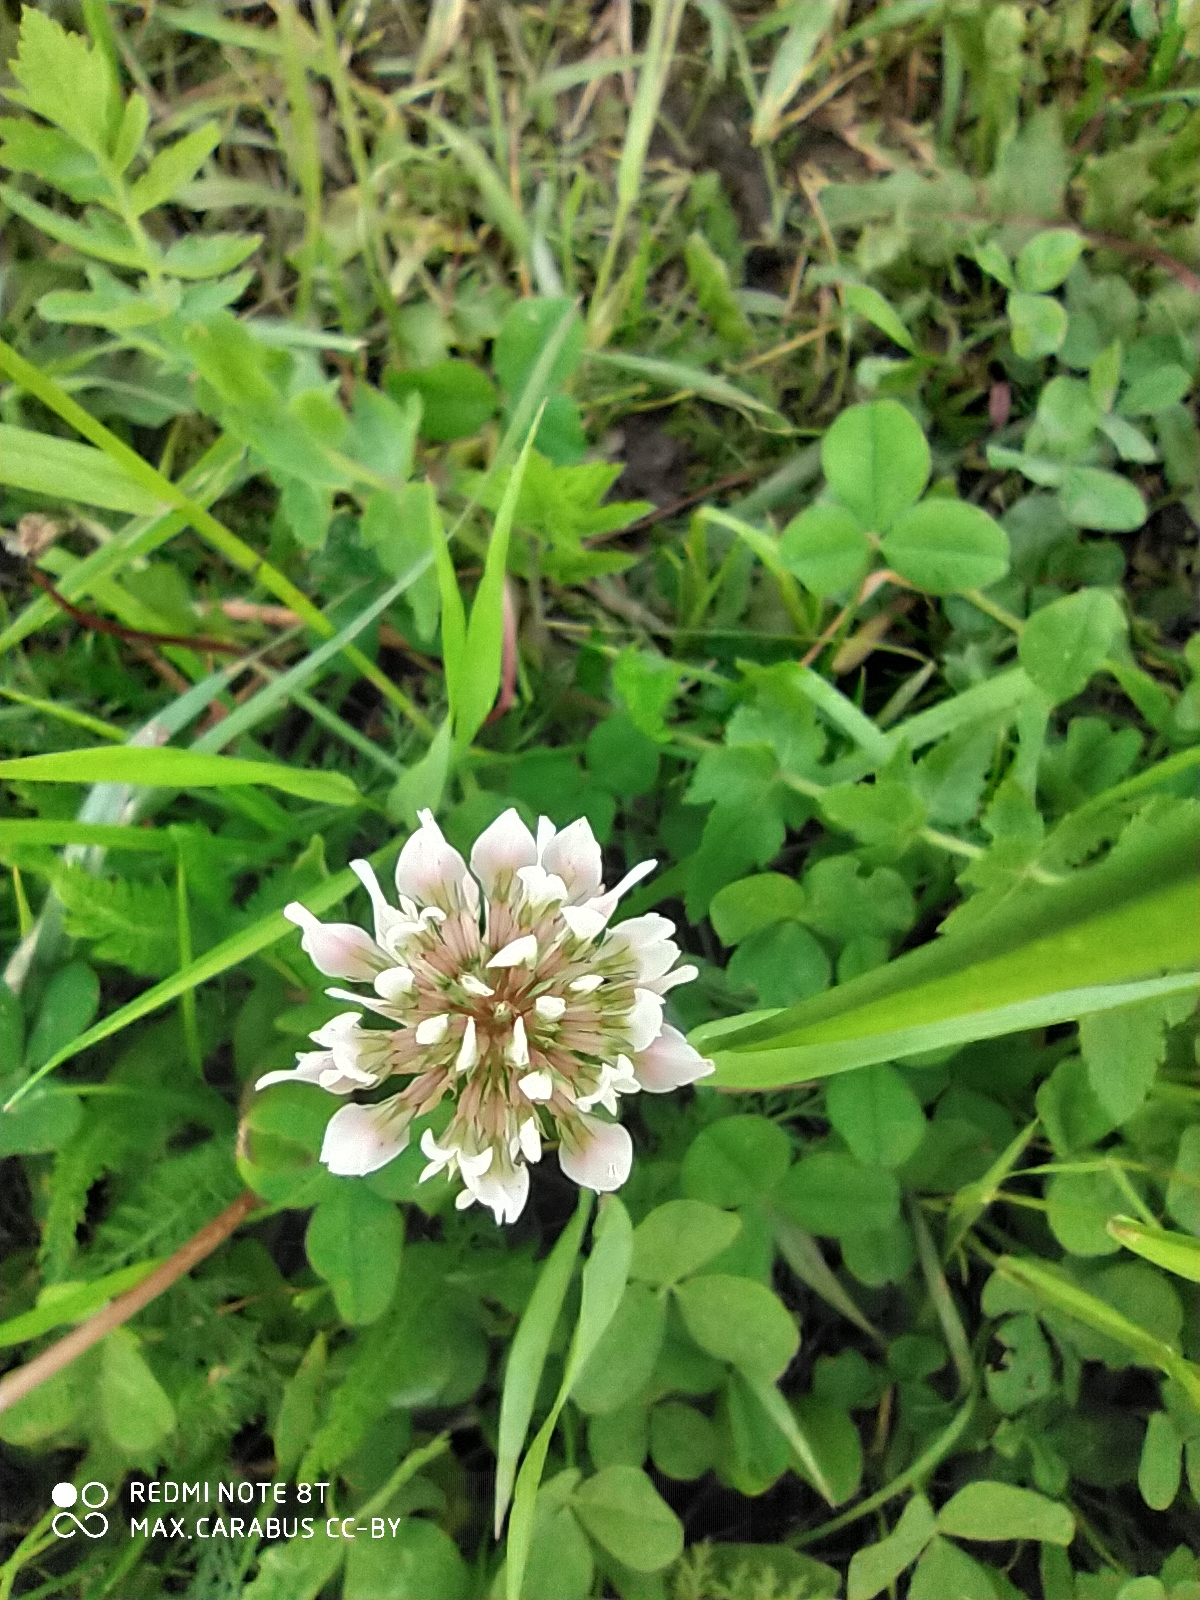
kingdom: Plantae
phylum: Tracheophyta
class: Magnoliopsida
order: Fabales
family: Fabaceae
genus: Trifolium
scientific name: Trifolium repens
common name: White clover
